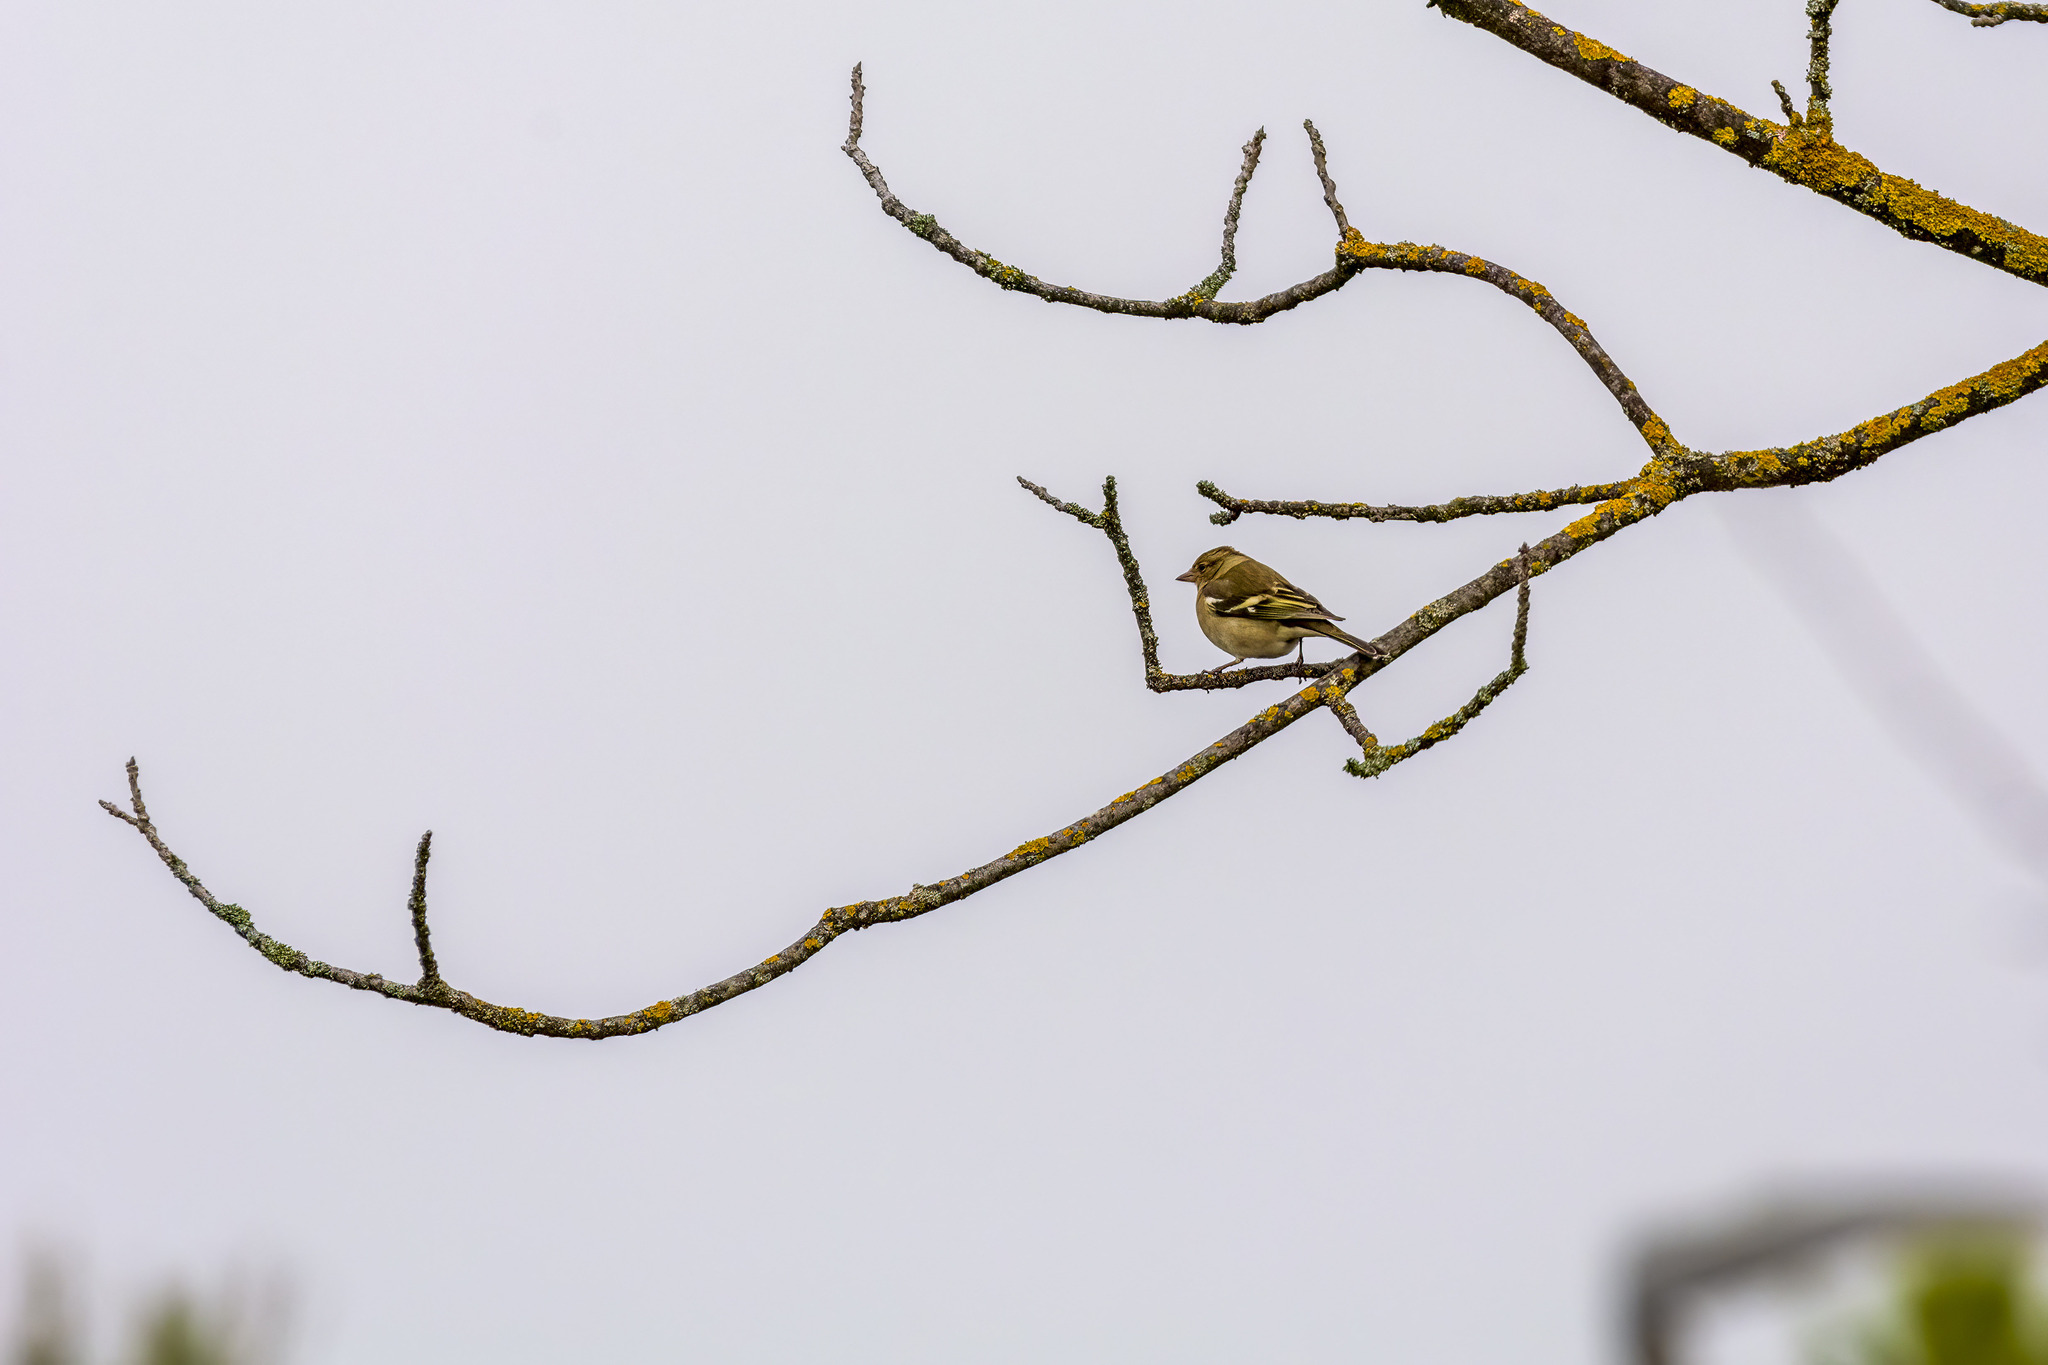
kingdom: Animalia
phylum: Chordata
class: Aves
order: Passeriformes
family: Fringillidae
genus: Fringilla
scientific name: Fringilla coelebs
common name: Common chaffinch
